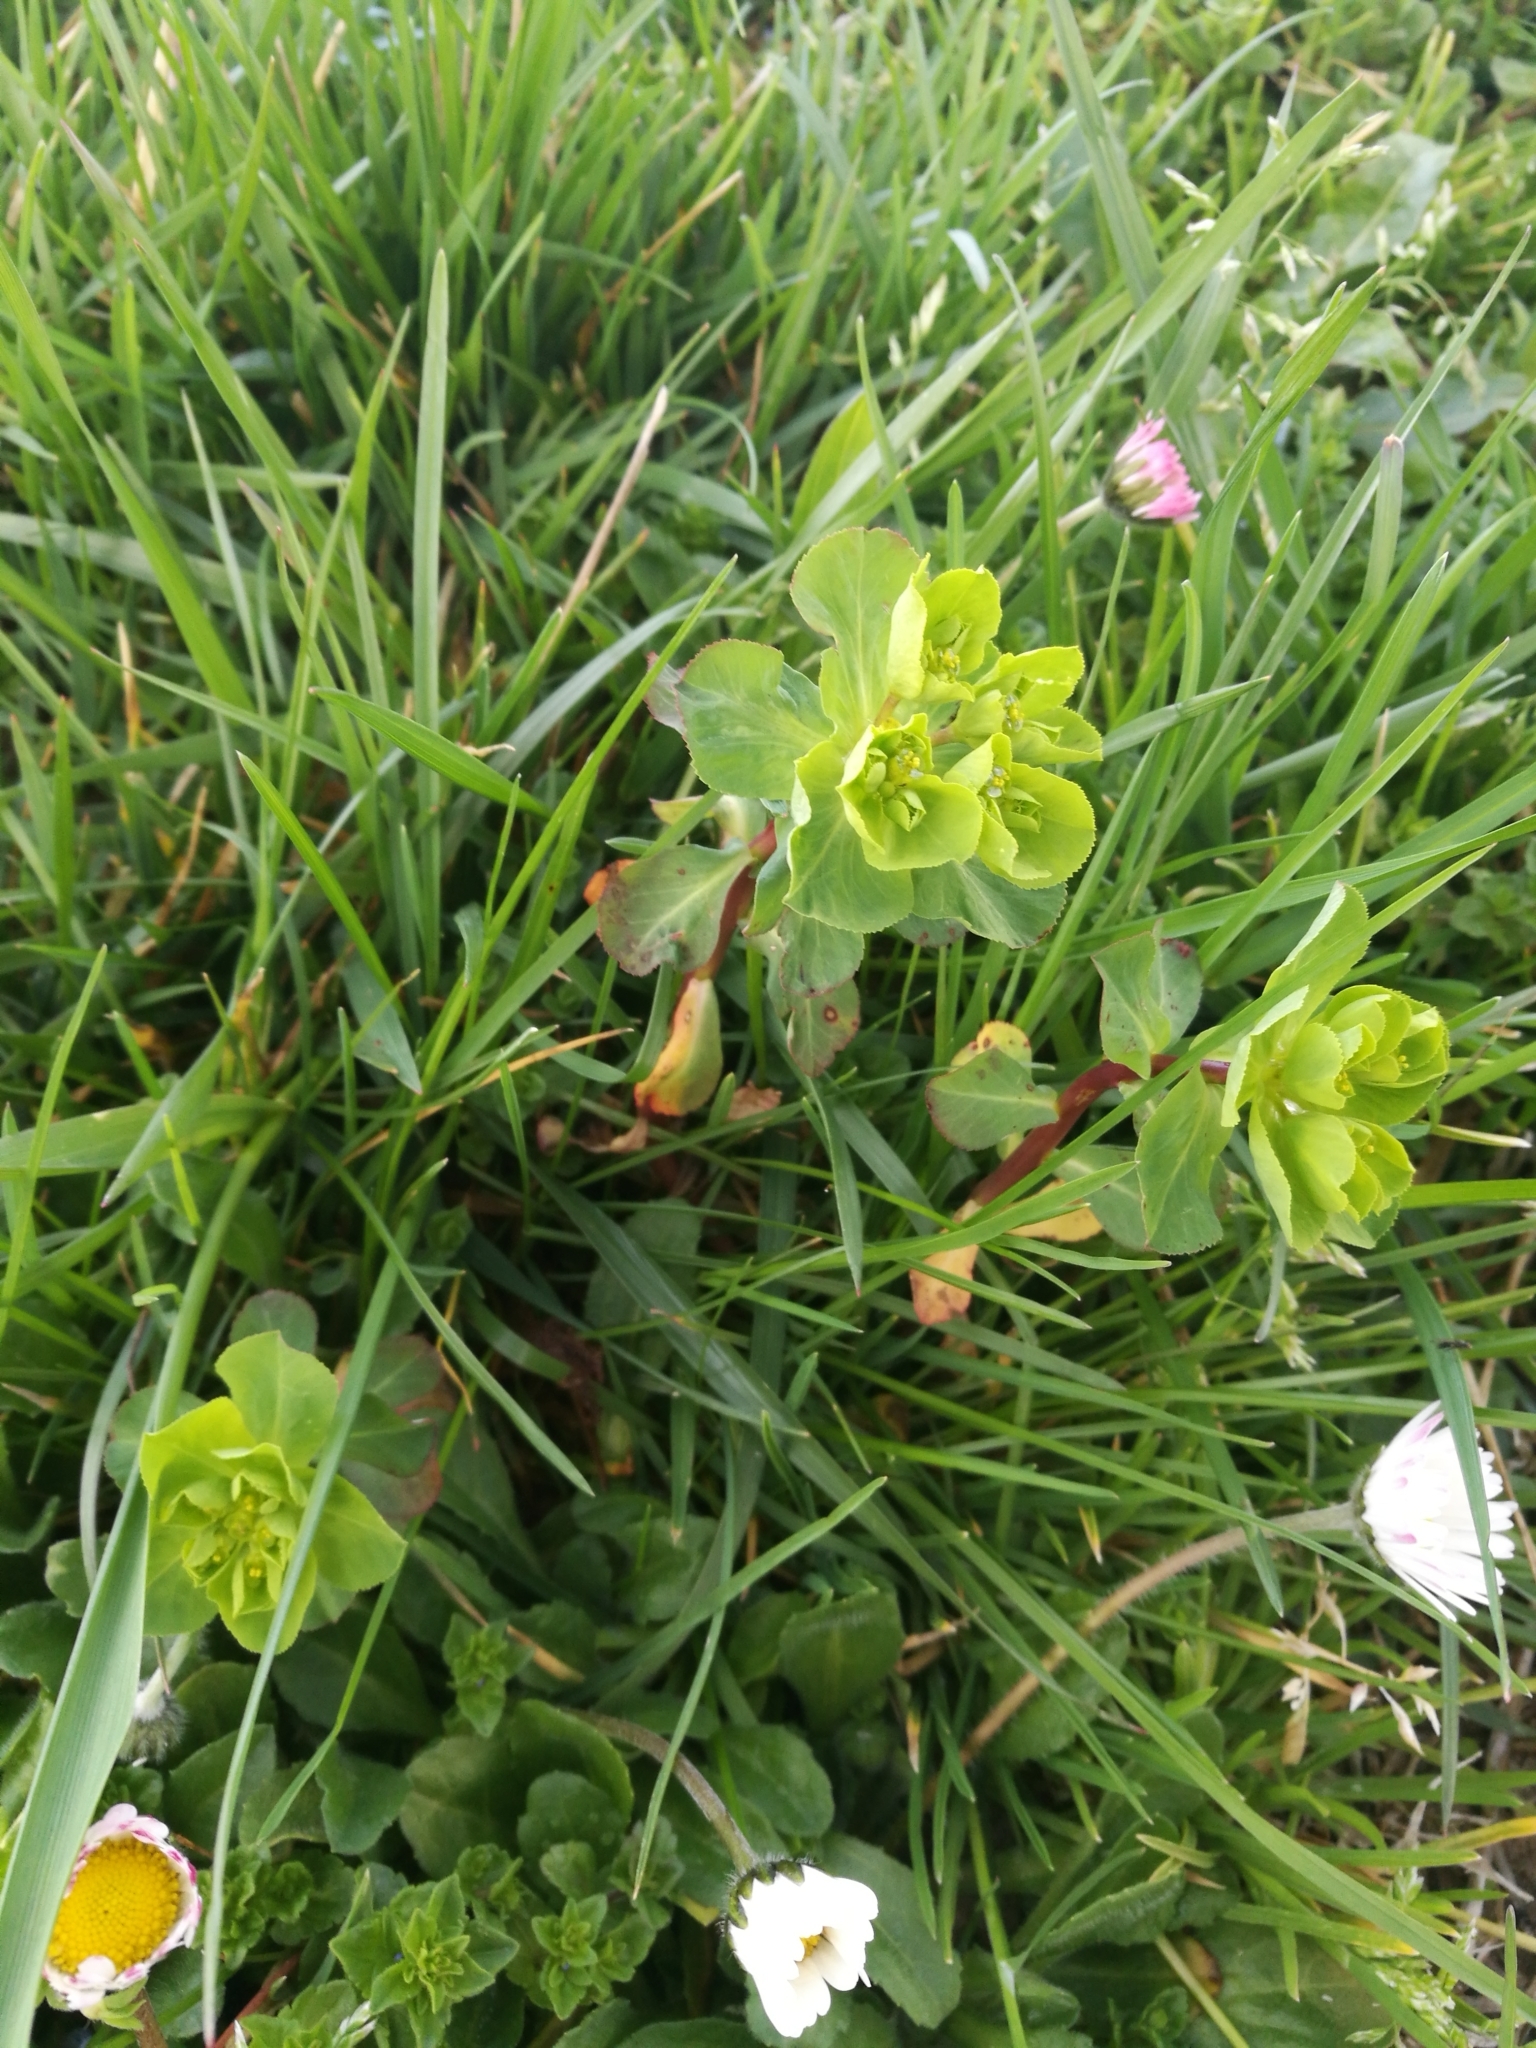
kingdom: Plantae
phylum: Tracheophyta
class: Magnoliopsida
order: Malpighiales
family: Euphorbiaceae
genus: Euphorbia
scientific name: Euphorbia helioscopia
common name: Sun spurge
